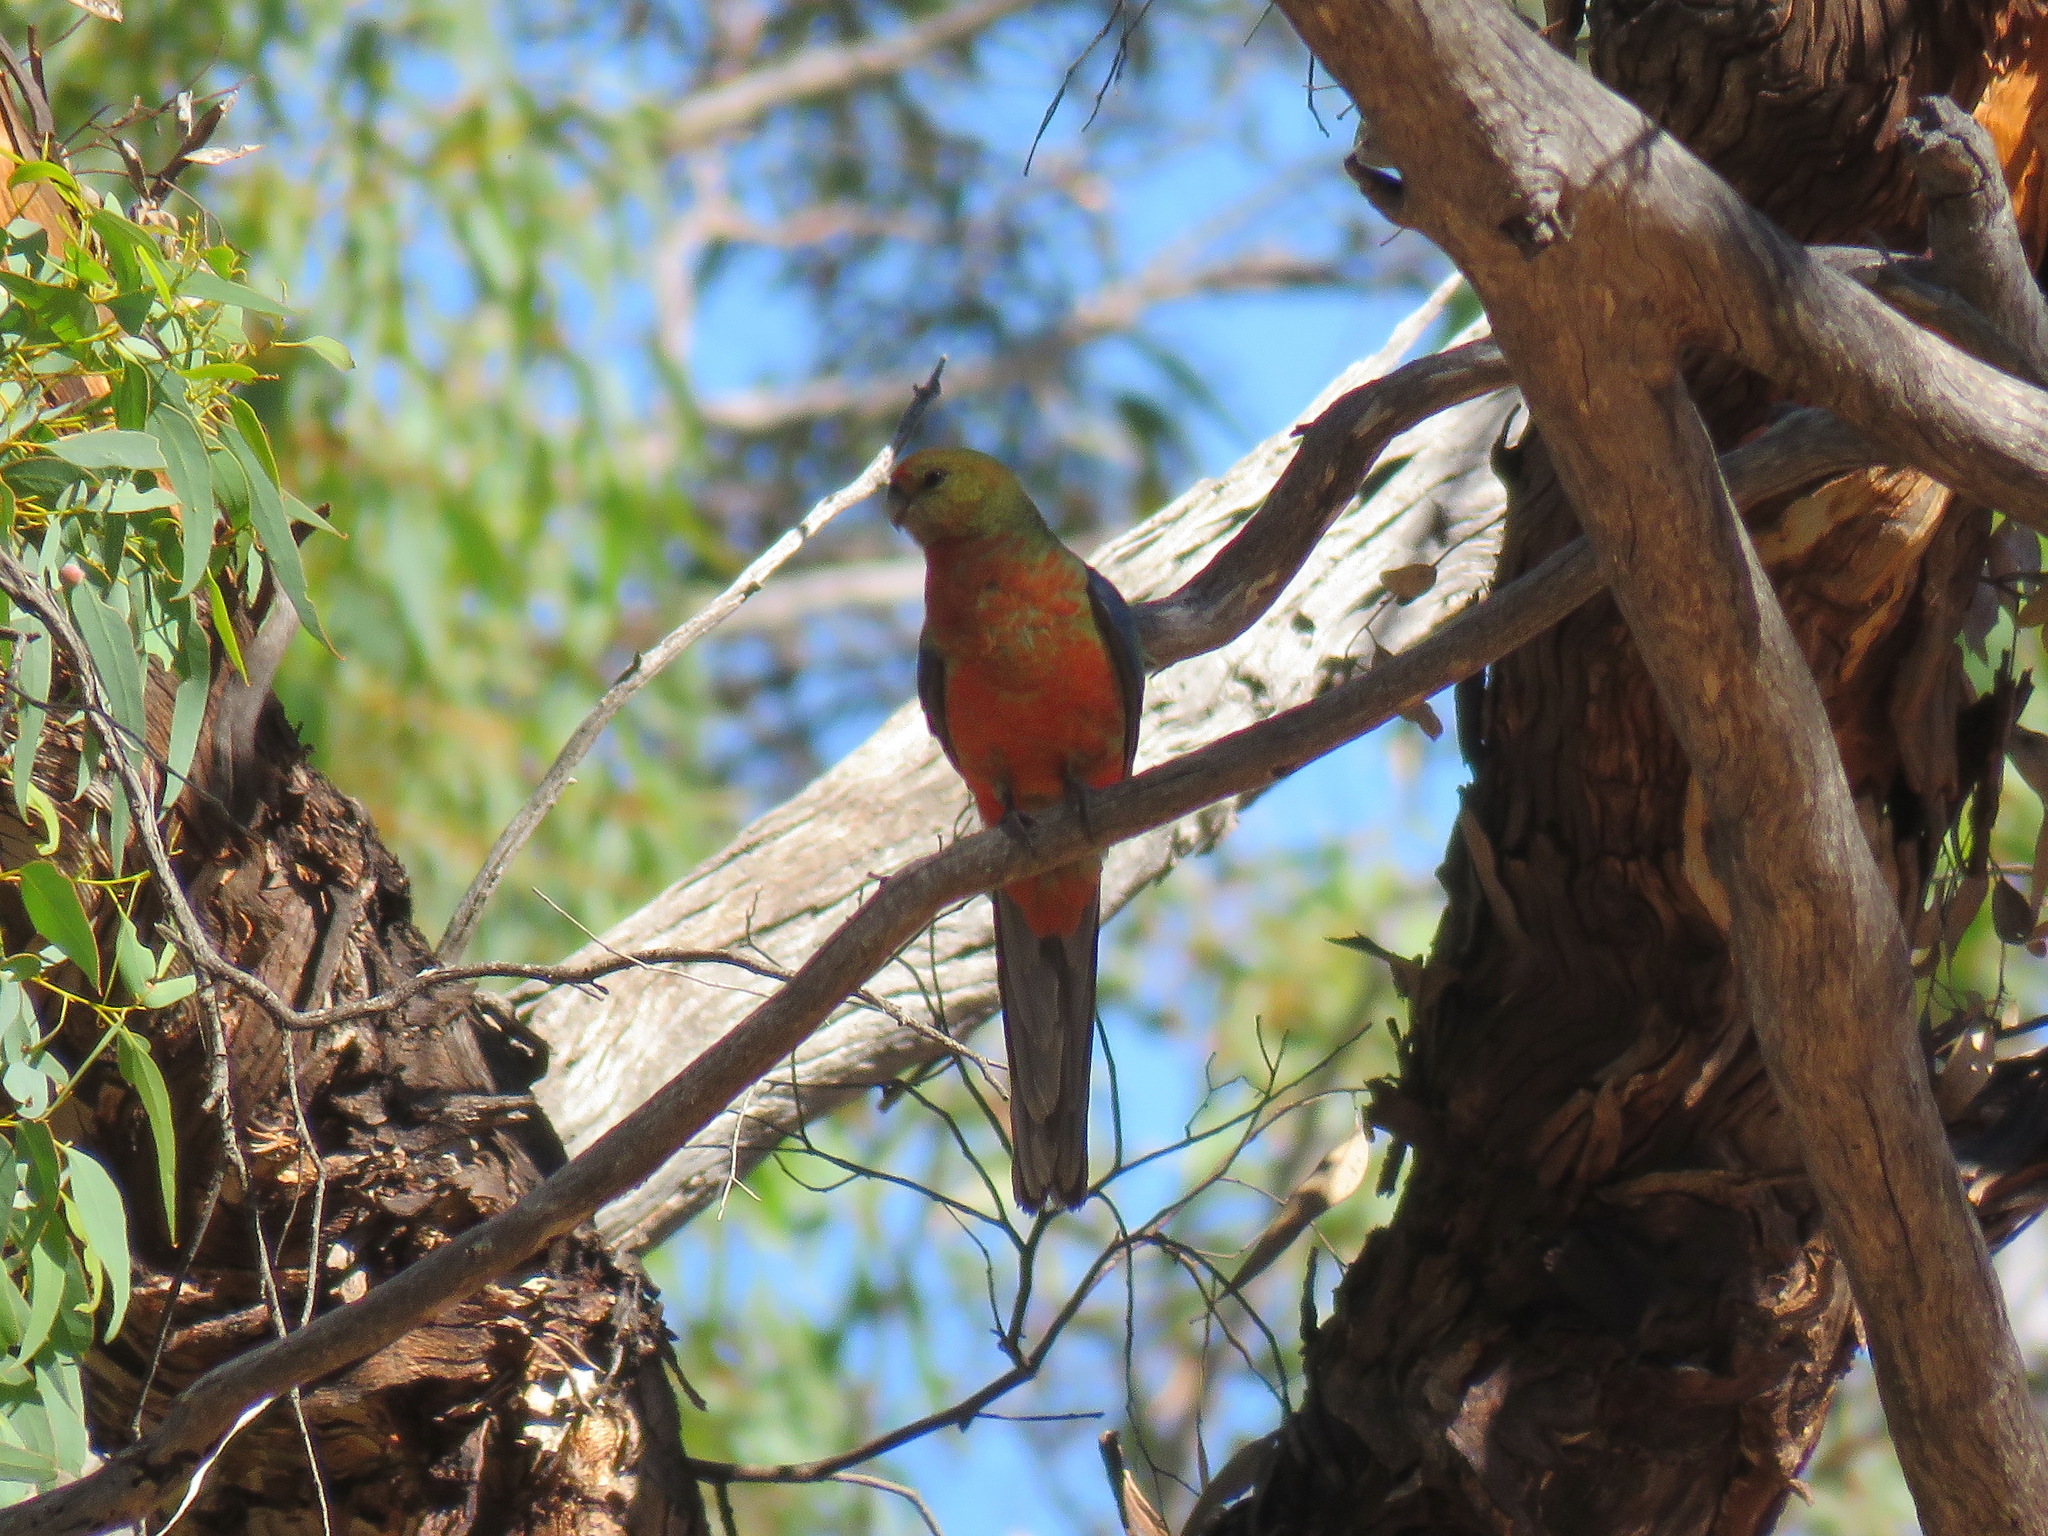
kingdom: Animalia
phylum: Chordata
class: Aves
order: Psittaciformes
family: Psittacidae
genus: Platycercus
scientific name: Platycercus icterotis
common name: Western rosella
